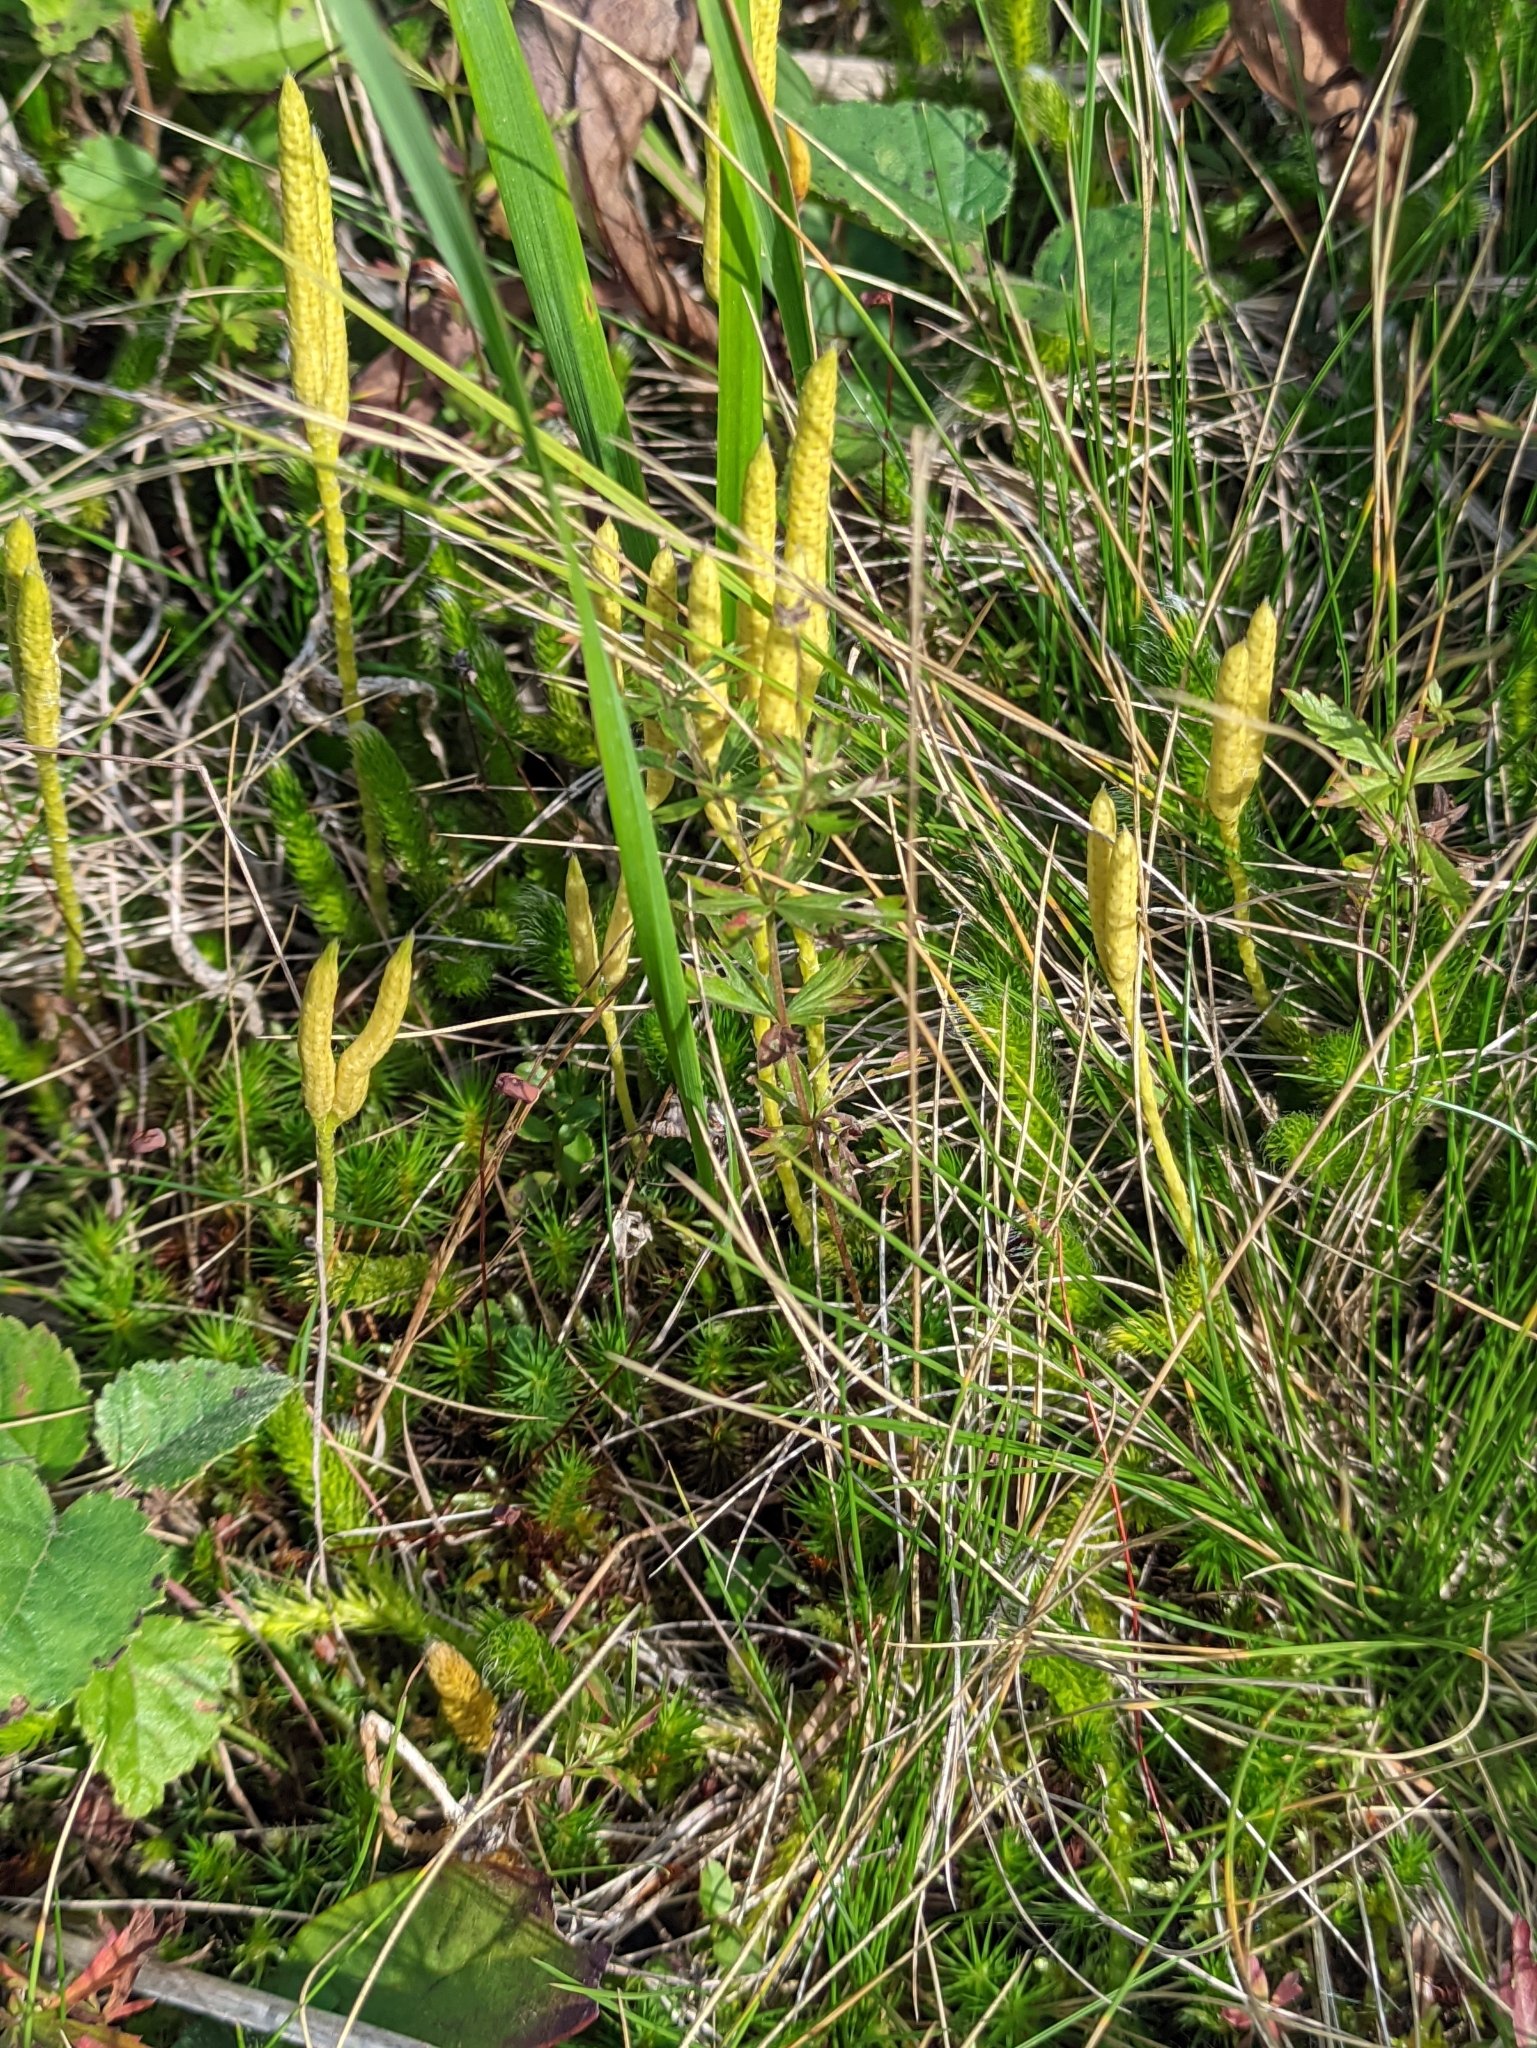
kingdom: Plantae
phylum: Tracheophyta
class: Lycopodiopsida
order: Lycopodiales
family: Lycopodiaceae
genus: Lycopodium
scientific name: Lycopodium clavatum
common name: Stag's-horn clubmoss
